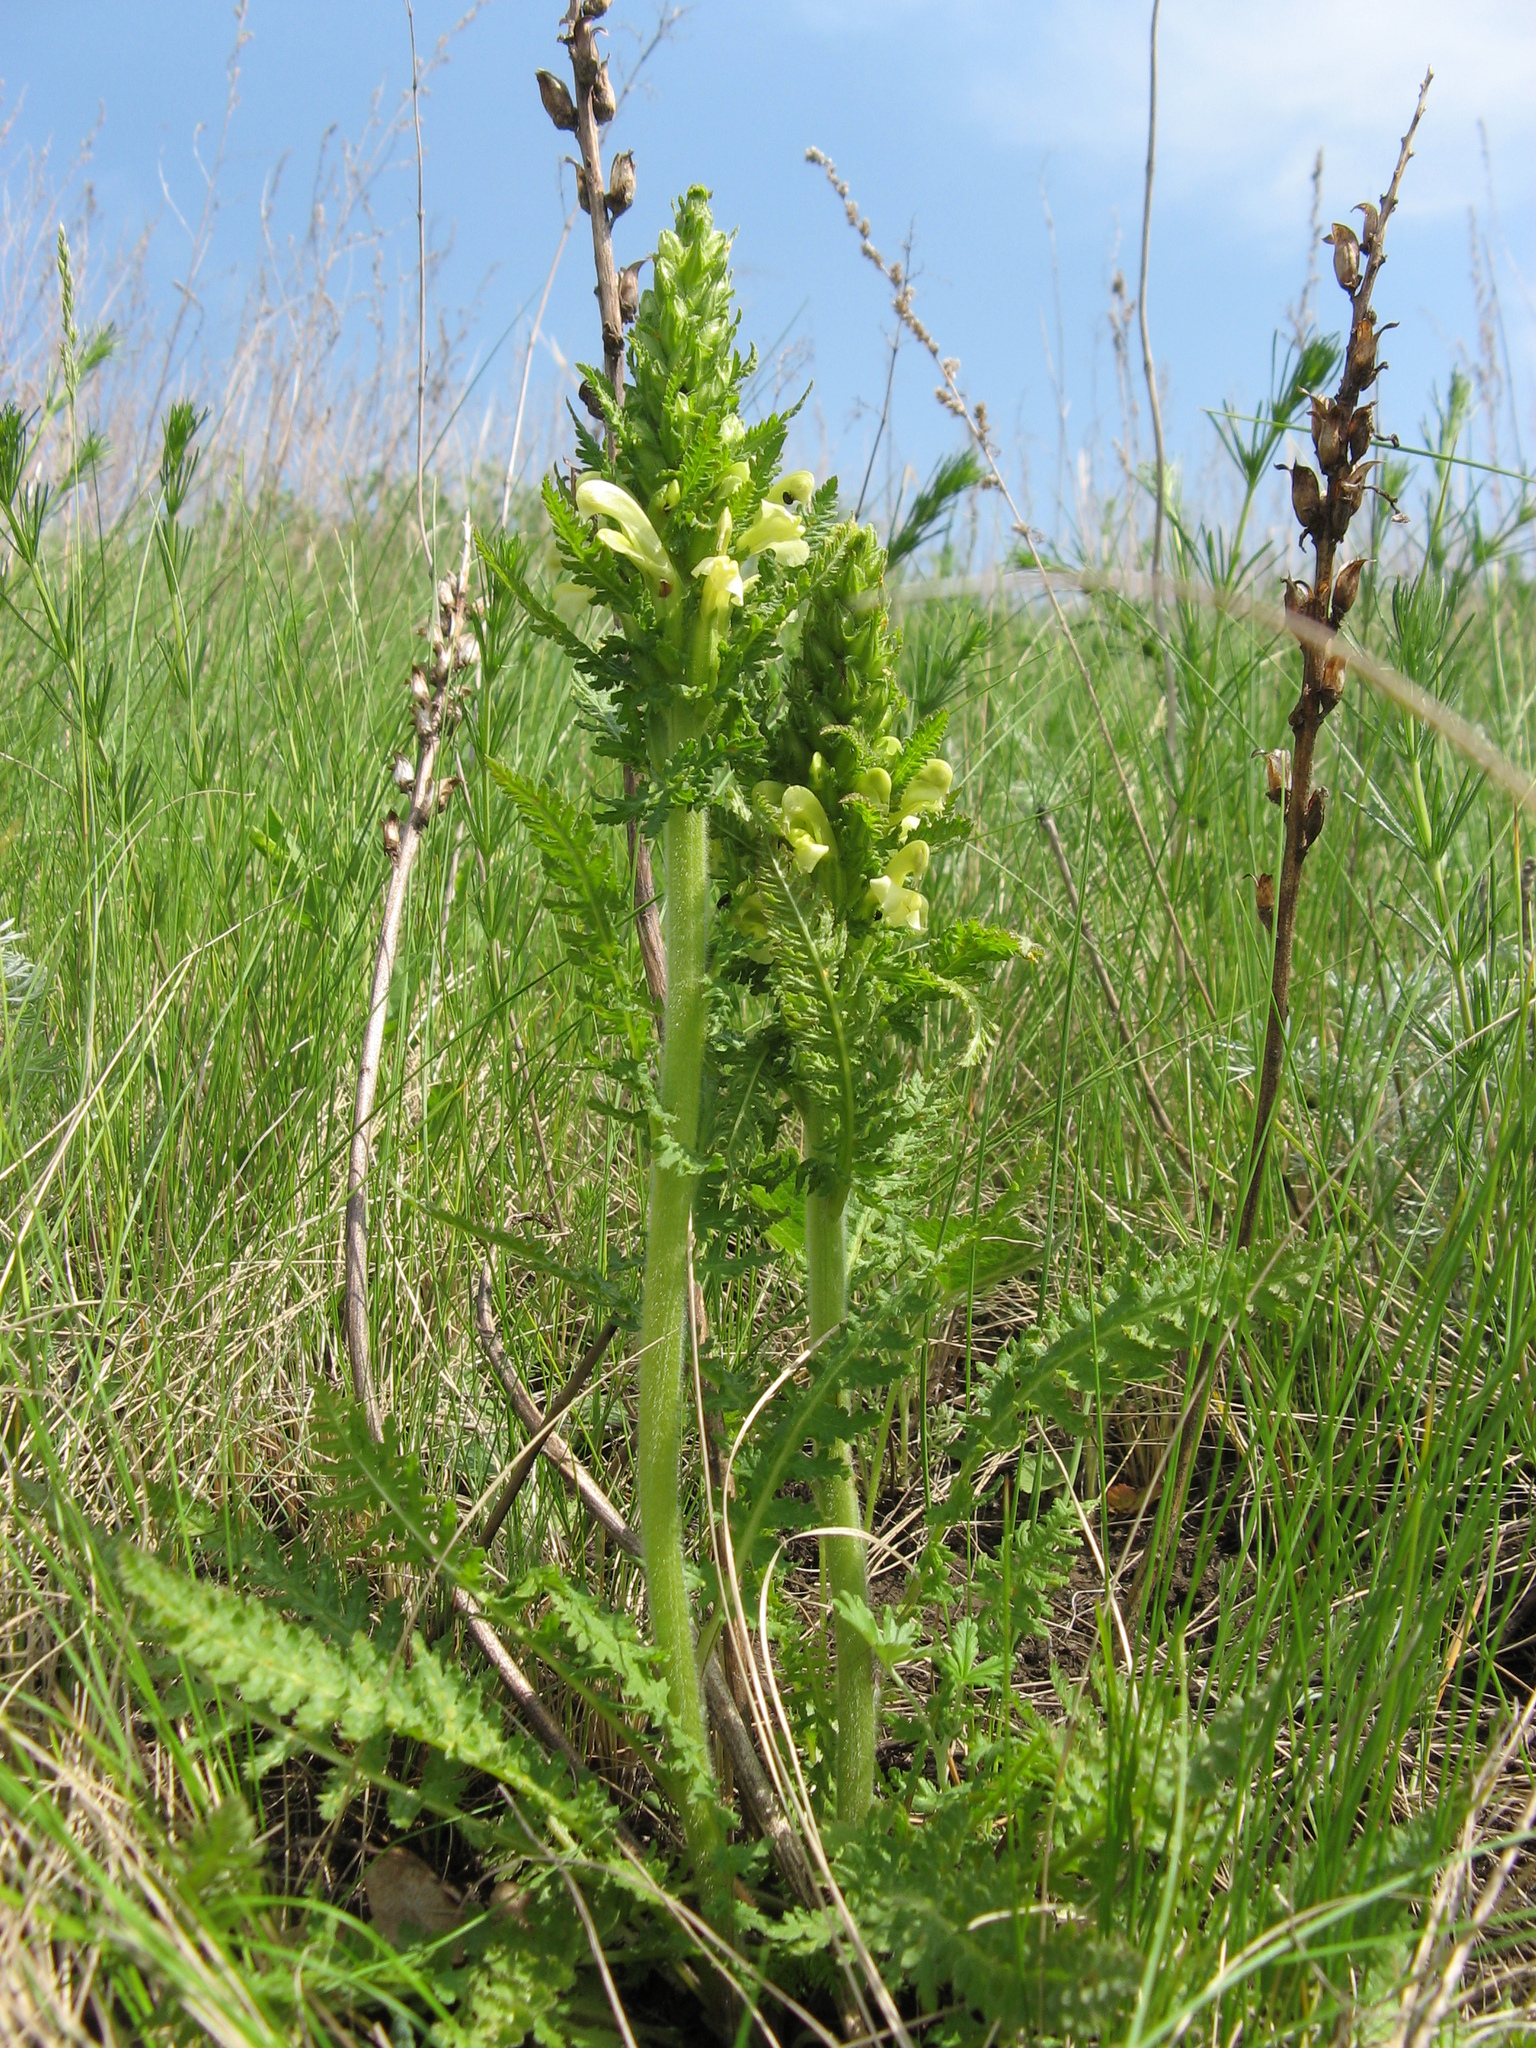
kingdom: Plantae
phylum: Tracheophyta
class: Magnoliopsida
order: Lamiales
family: Orobanchaceae
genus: Pedicularis
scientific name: Pedicularis kaufmannii
